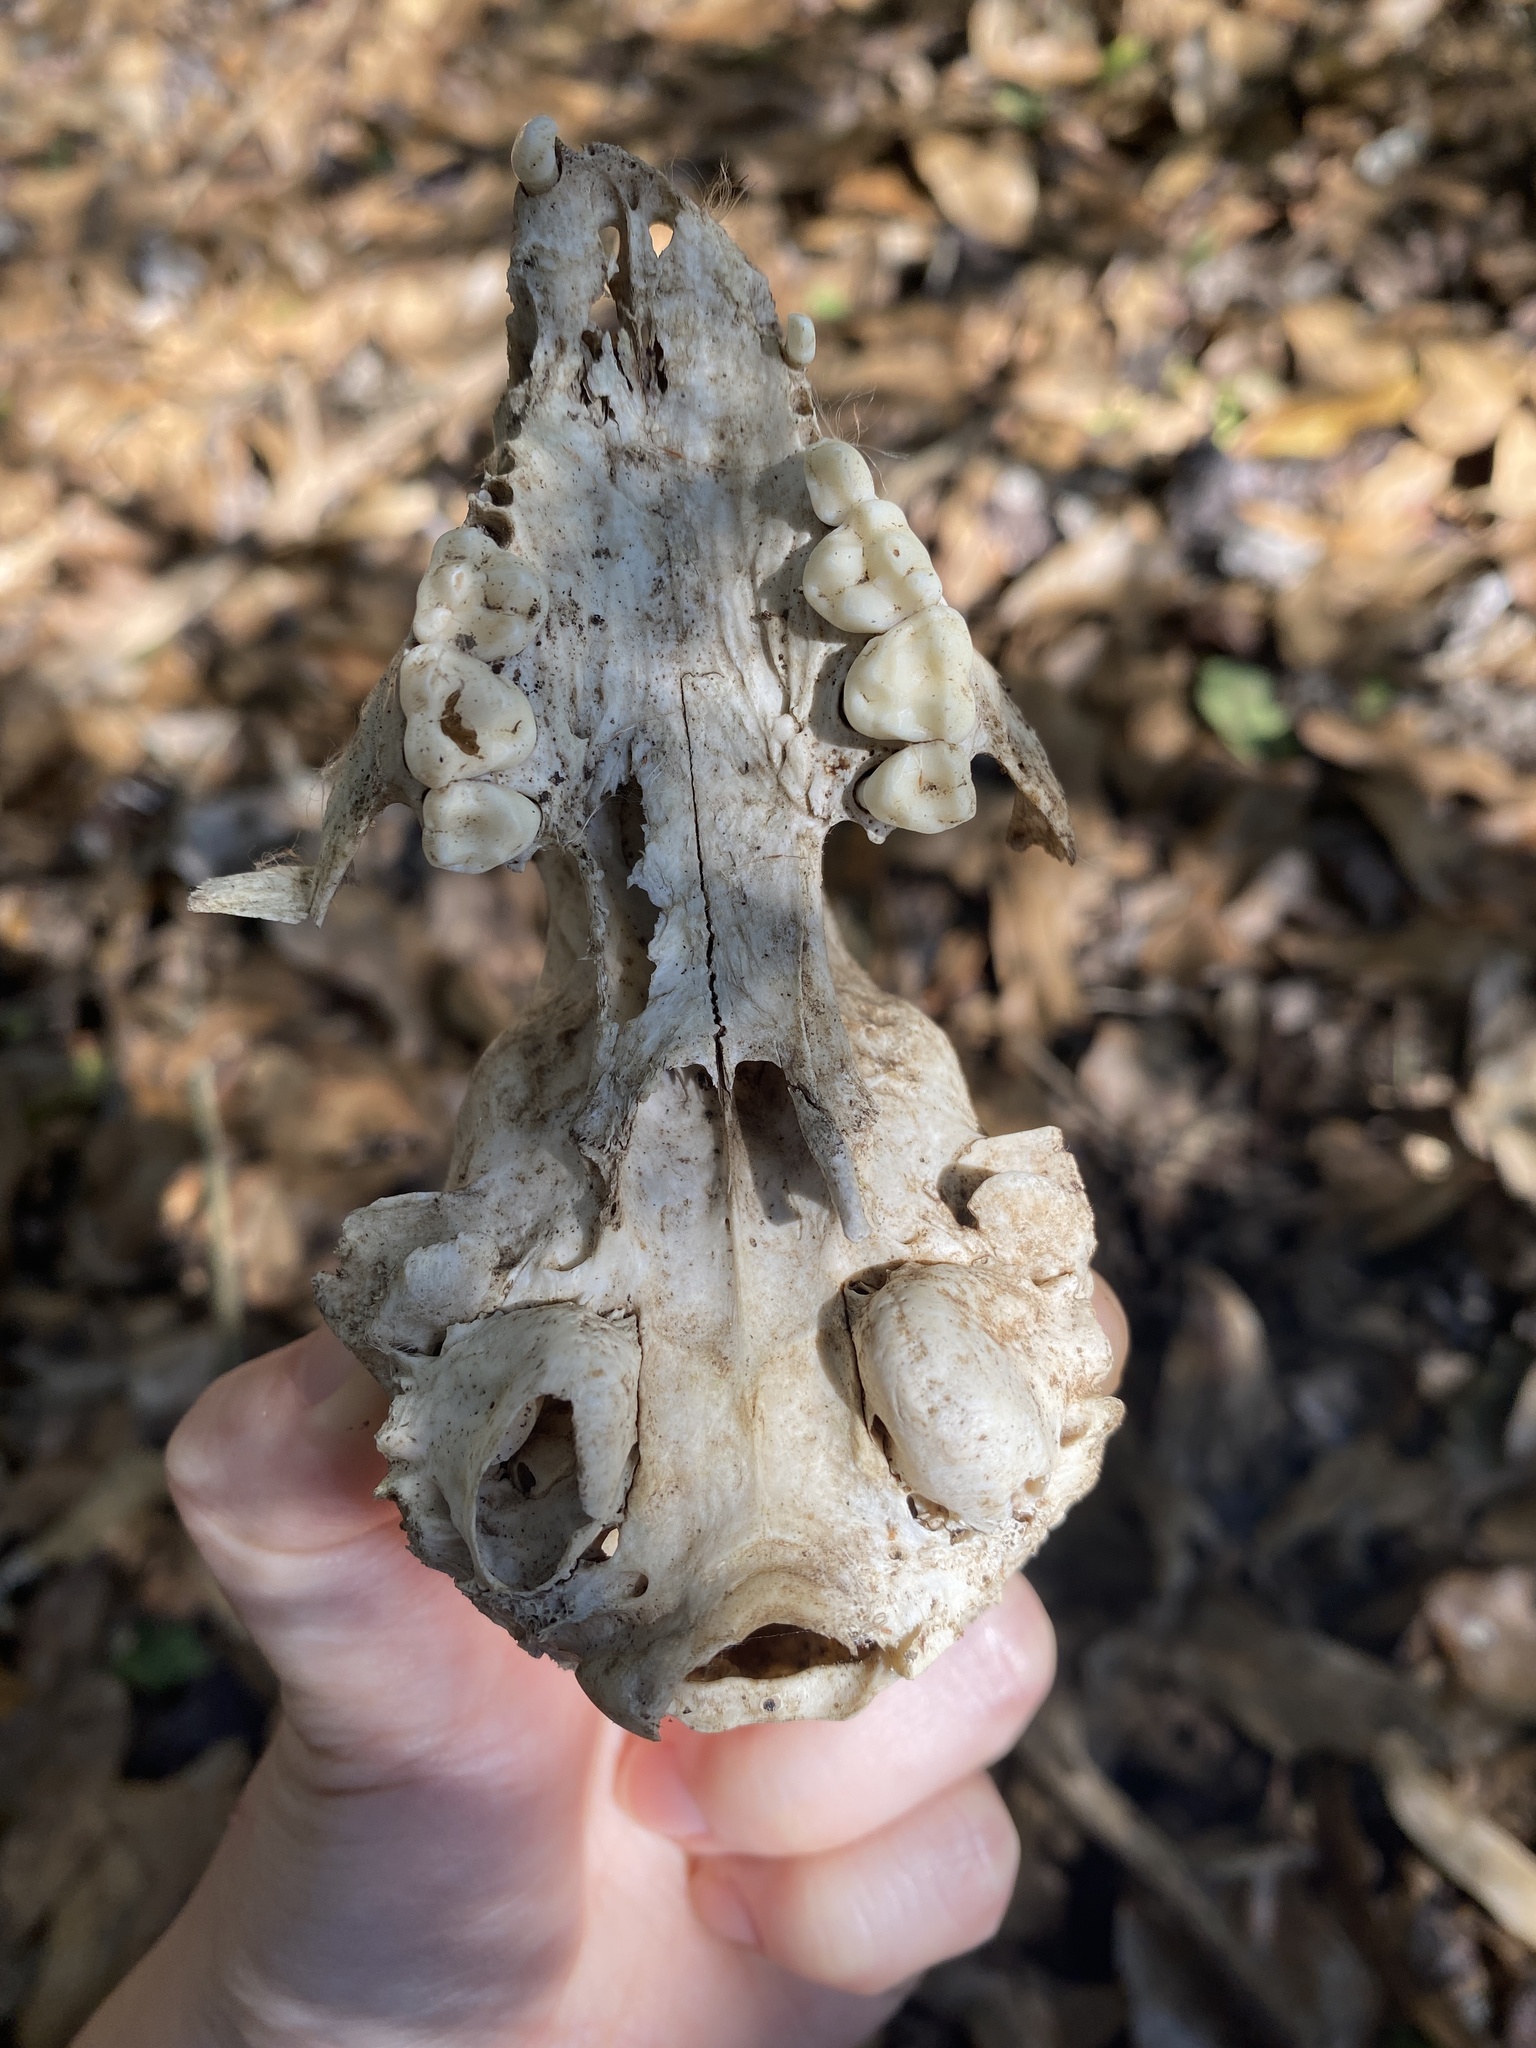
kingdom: Animalia
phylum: Chordata
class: Mammalia
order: Carnivora
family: Procyonidae
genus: Procyon
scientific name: Procyon lotor
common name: Raccoon
